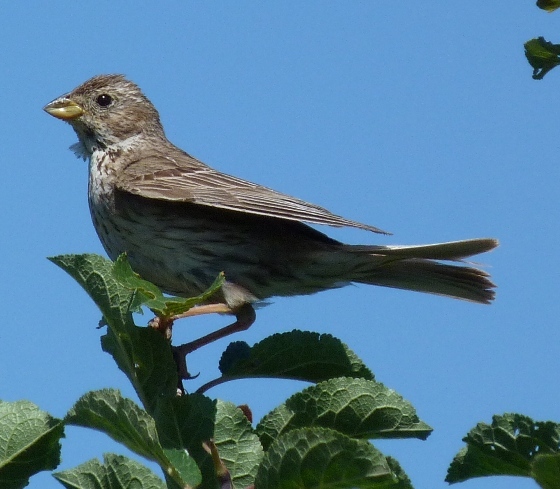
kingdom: Animalia
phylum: Chordata
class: Aves
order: Passeriformes
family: Emberizidae
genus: Emberiza
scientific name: Emberiza calandra
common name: Corn bunting
